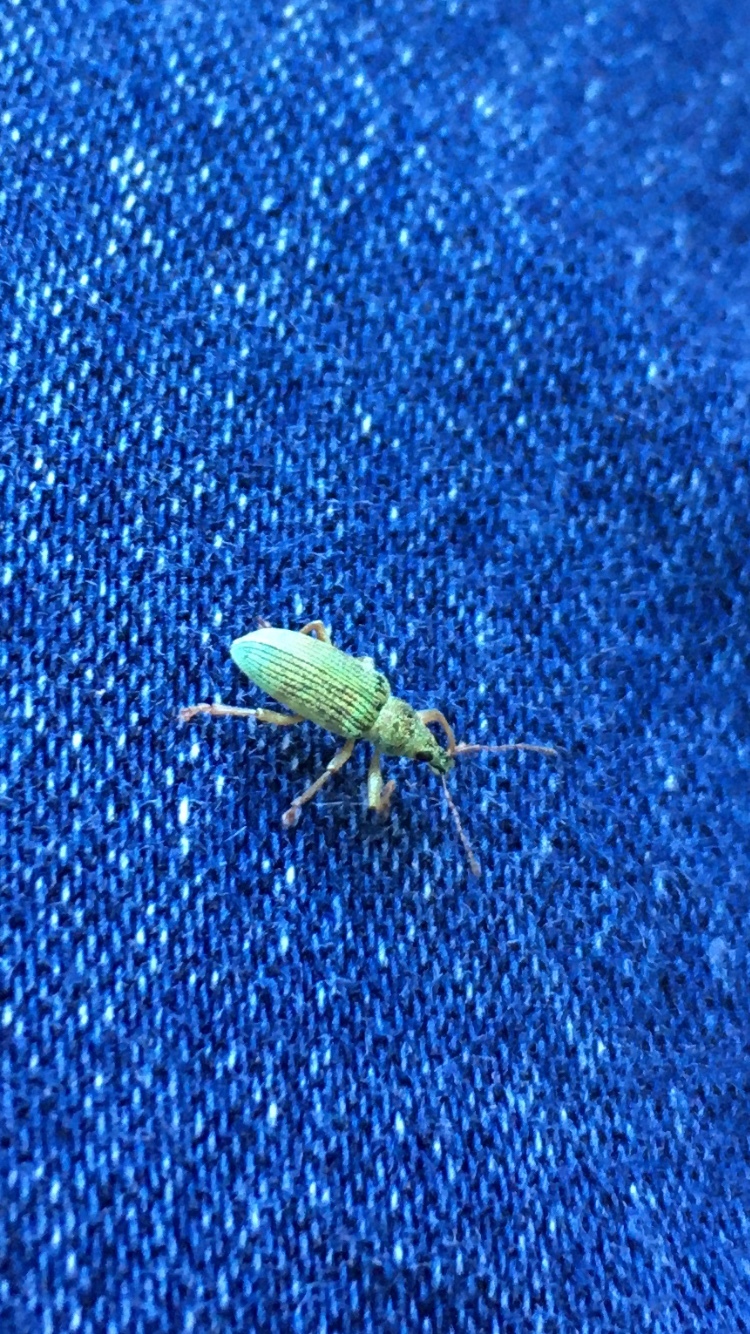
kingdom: Animalia
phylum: Arthropoda
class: Insecta
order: Coleoptera
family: Curculionidae
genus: Polydrusus
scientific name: Polydrusus formosus
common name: Weevil
